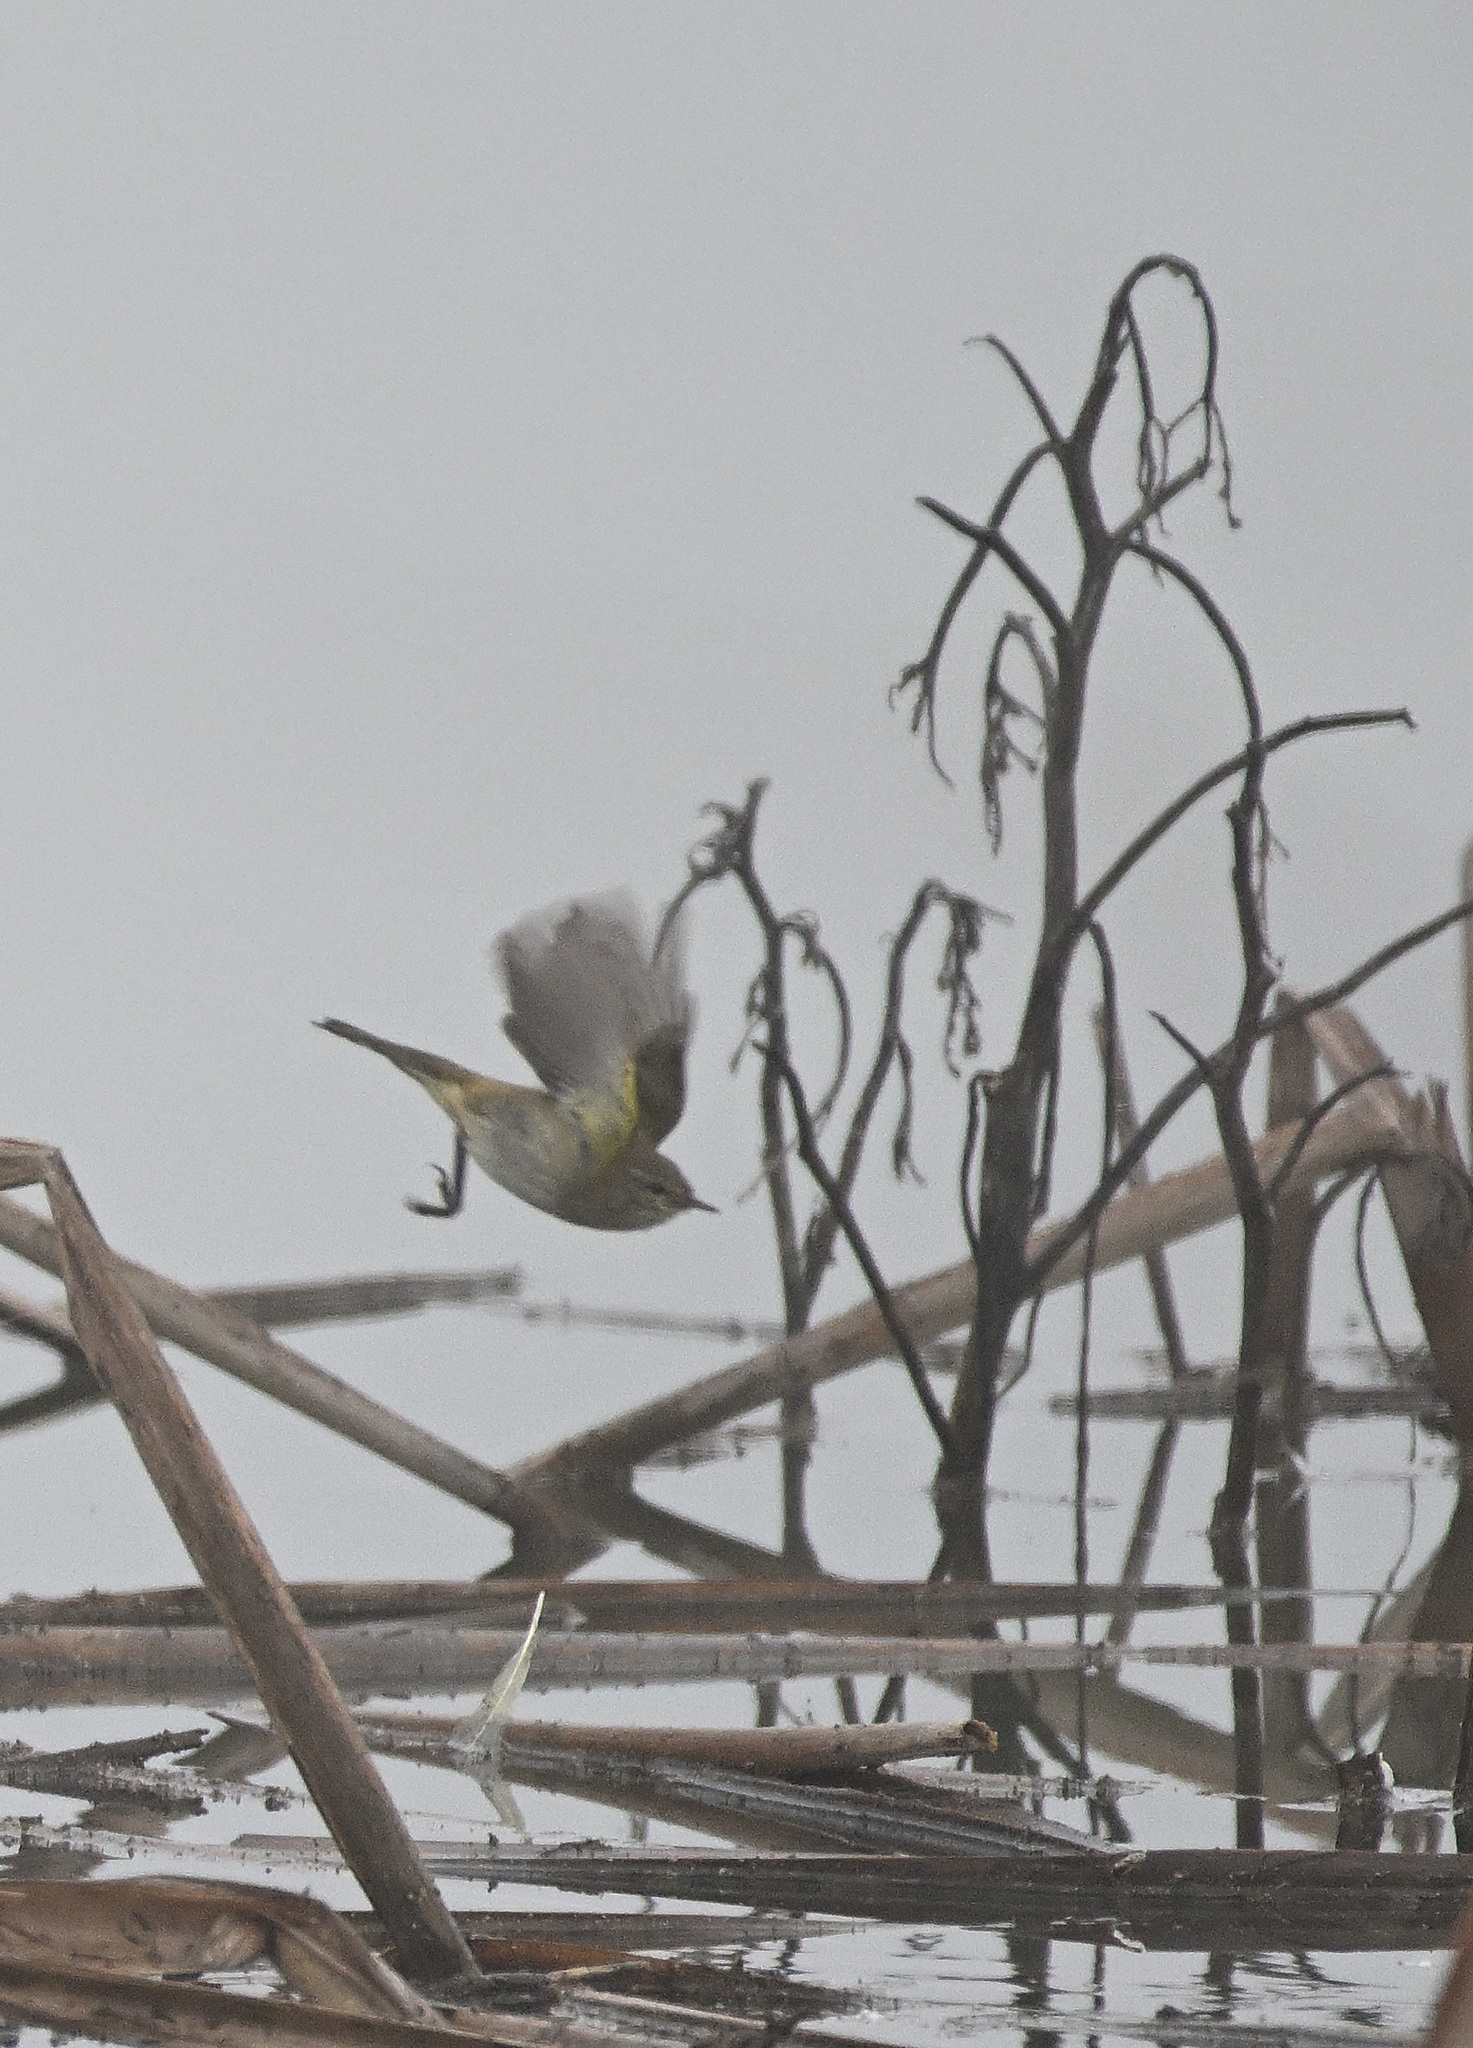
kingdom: Animalia
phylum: Chordata
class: Aves
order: Passeriformes
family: Phylloscopidae
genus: Phylloscopus
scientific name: Phylloscopus collybita
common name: Common chiffchaff
